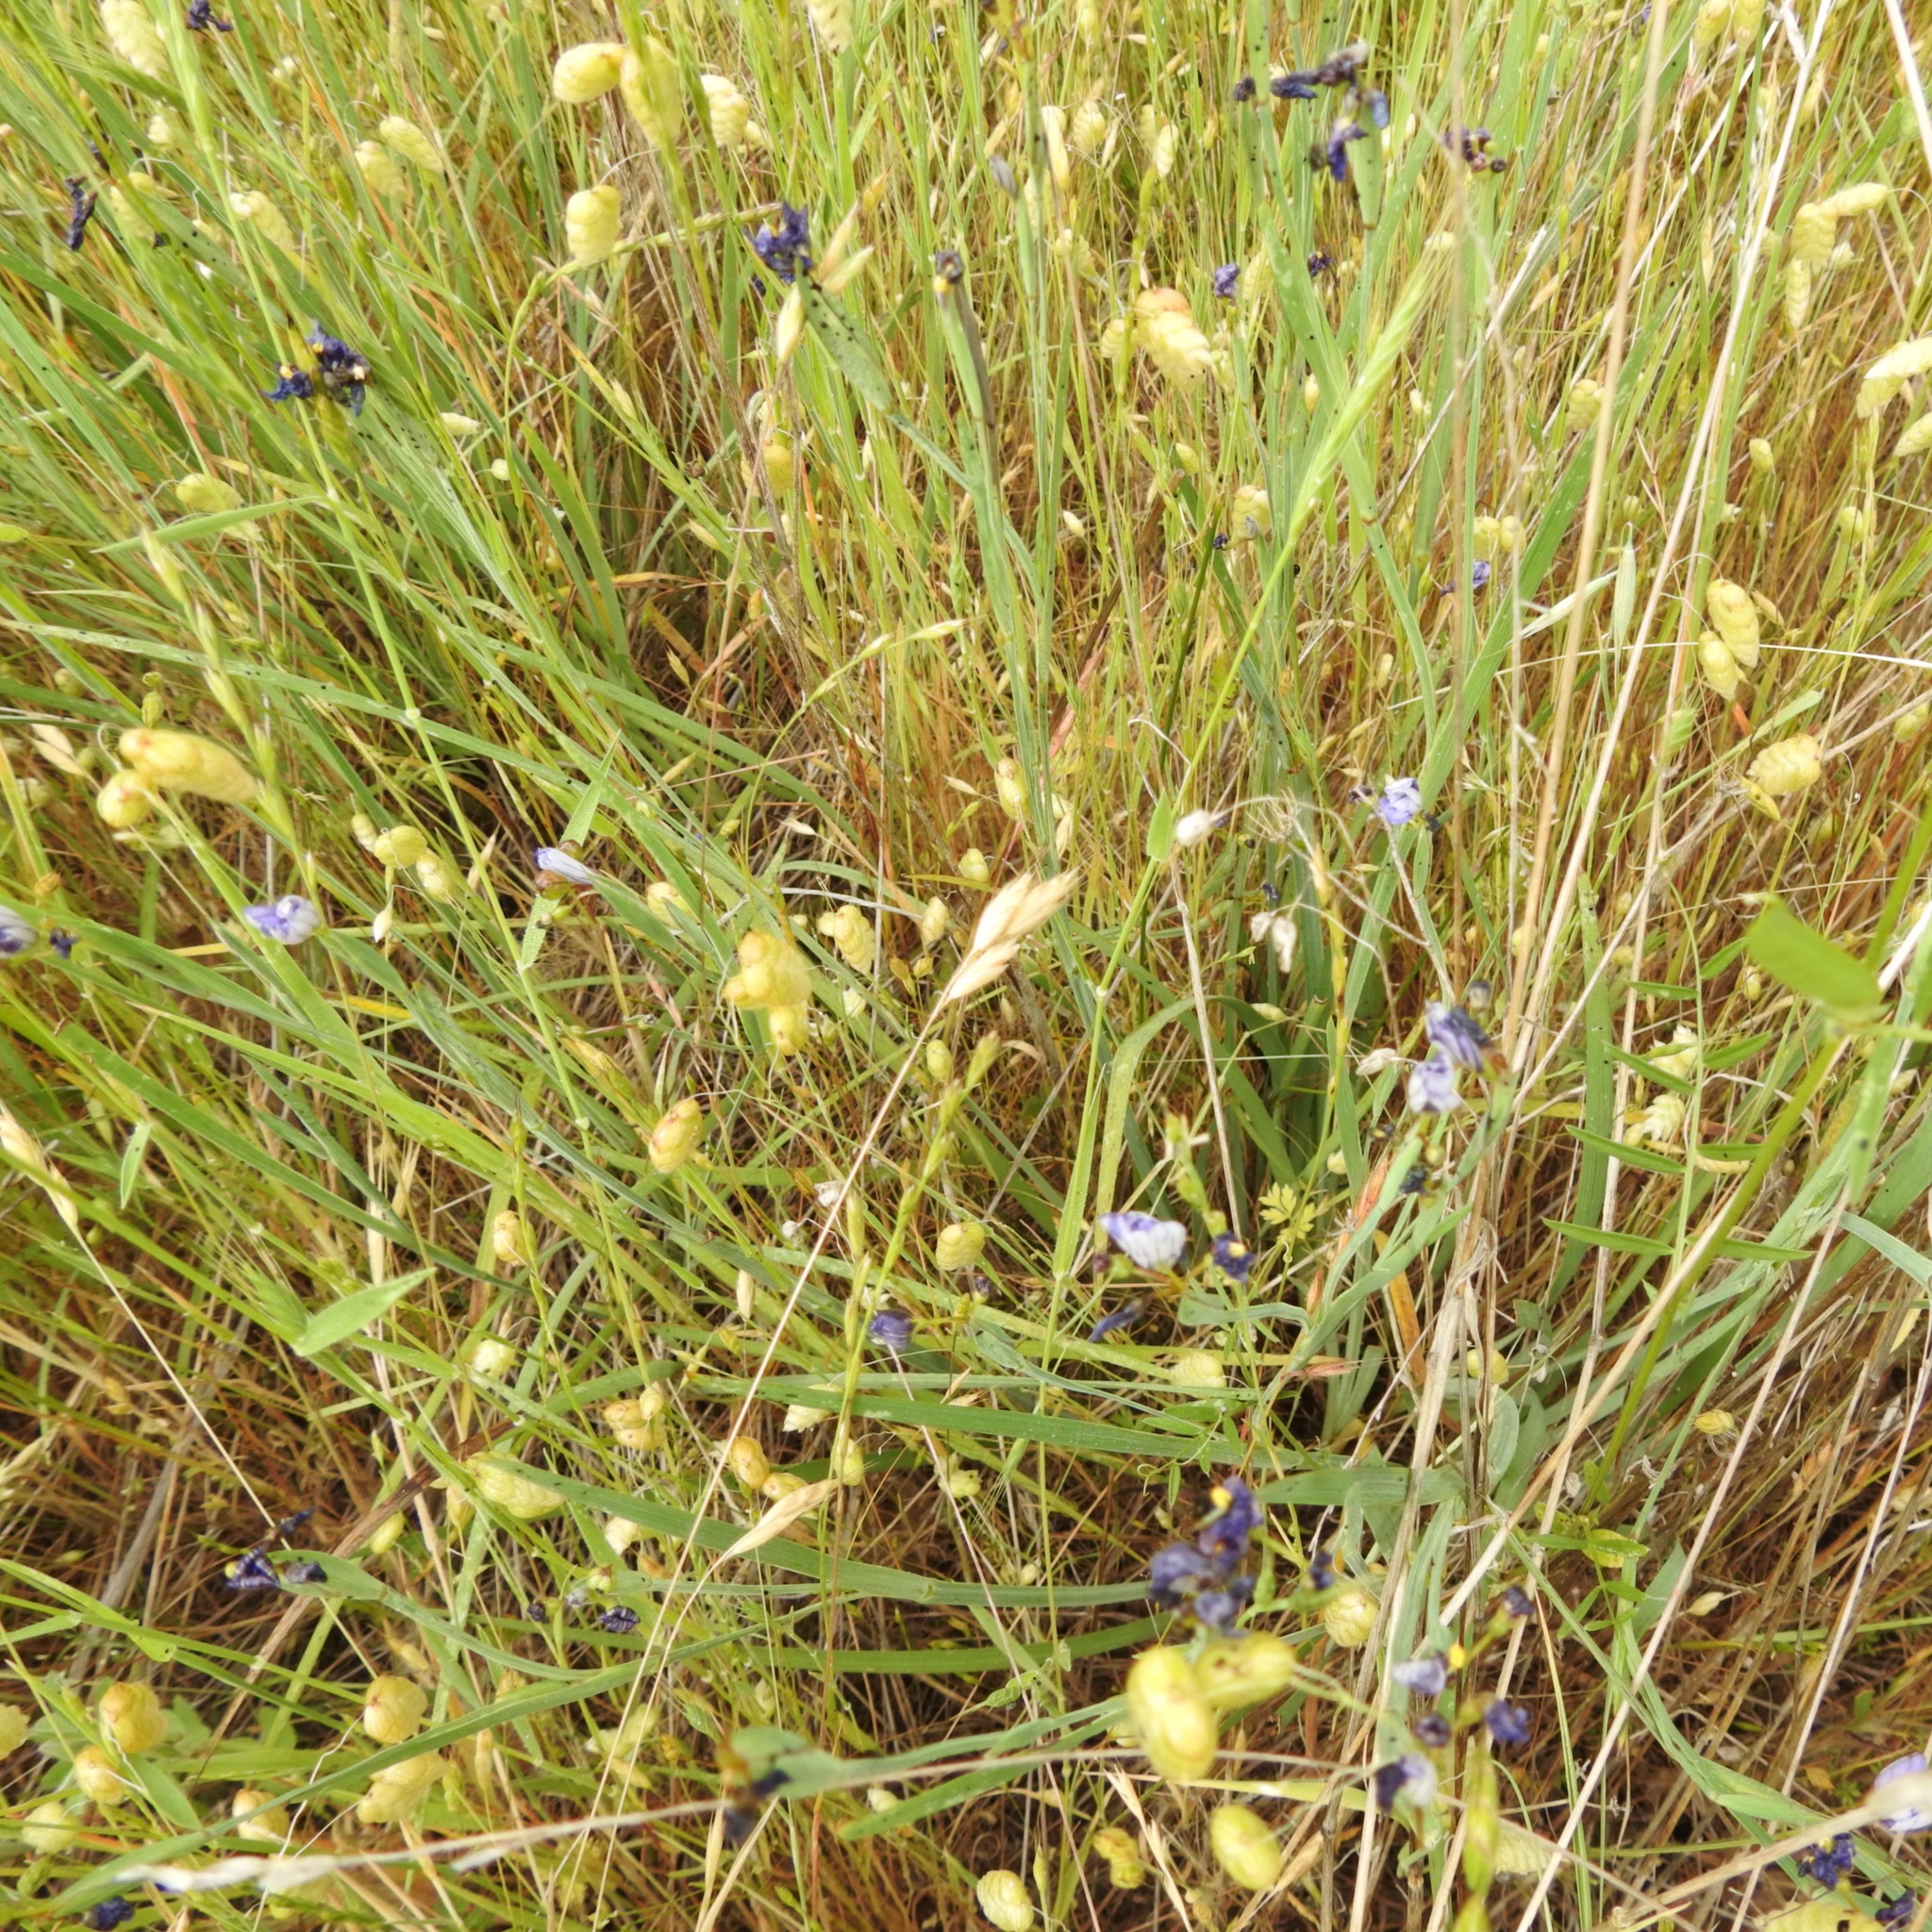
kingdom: Plantae
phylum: Tracheophyta
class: Liliopsida
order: Poales
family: Poaceae
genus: Briza
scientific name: Briza maxima
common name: Big quakinggrass
